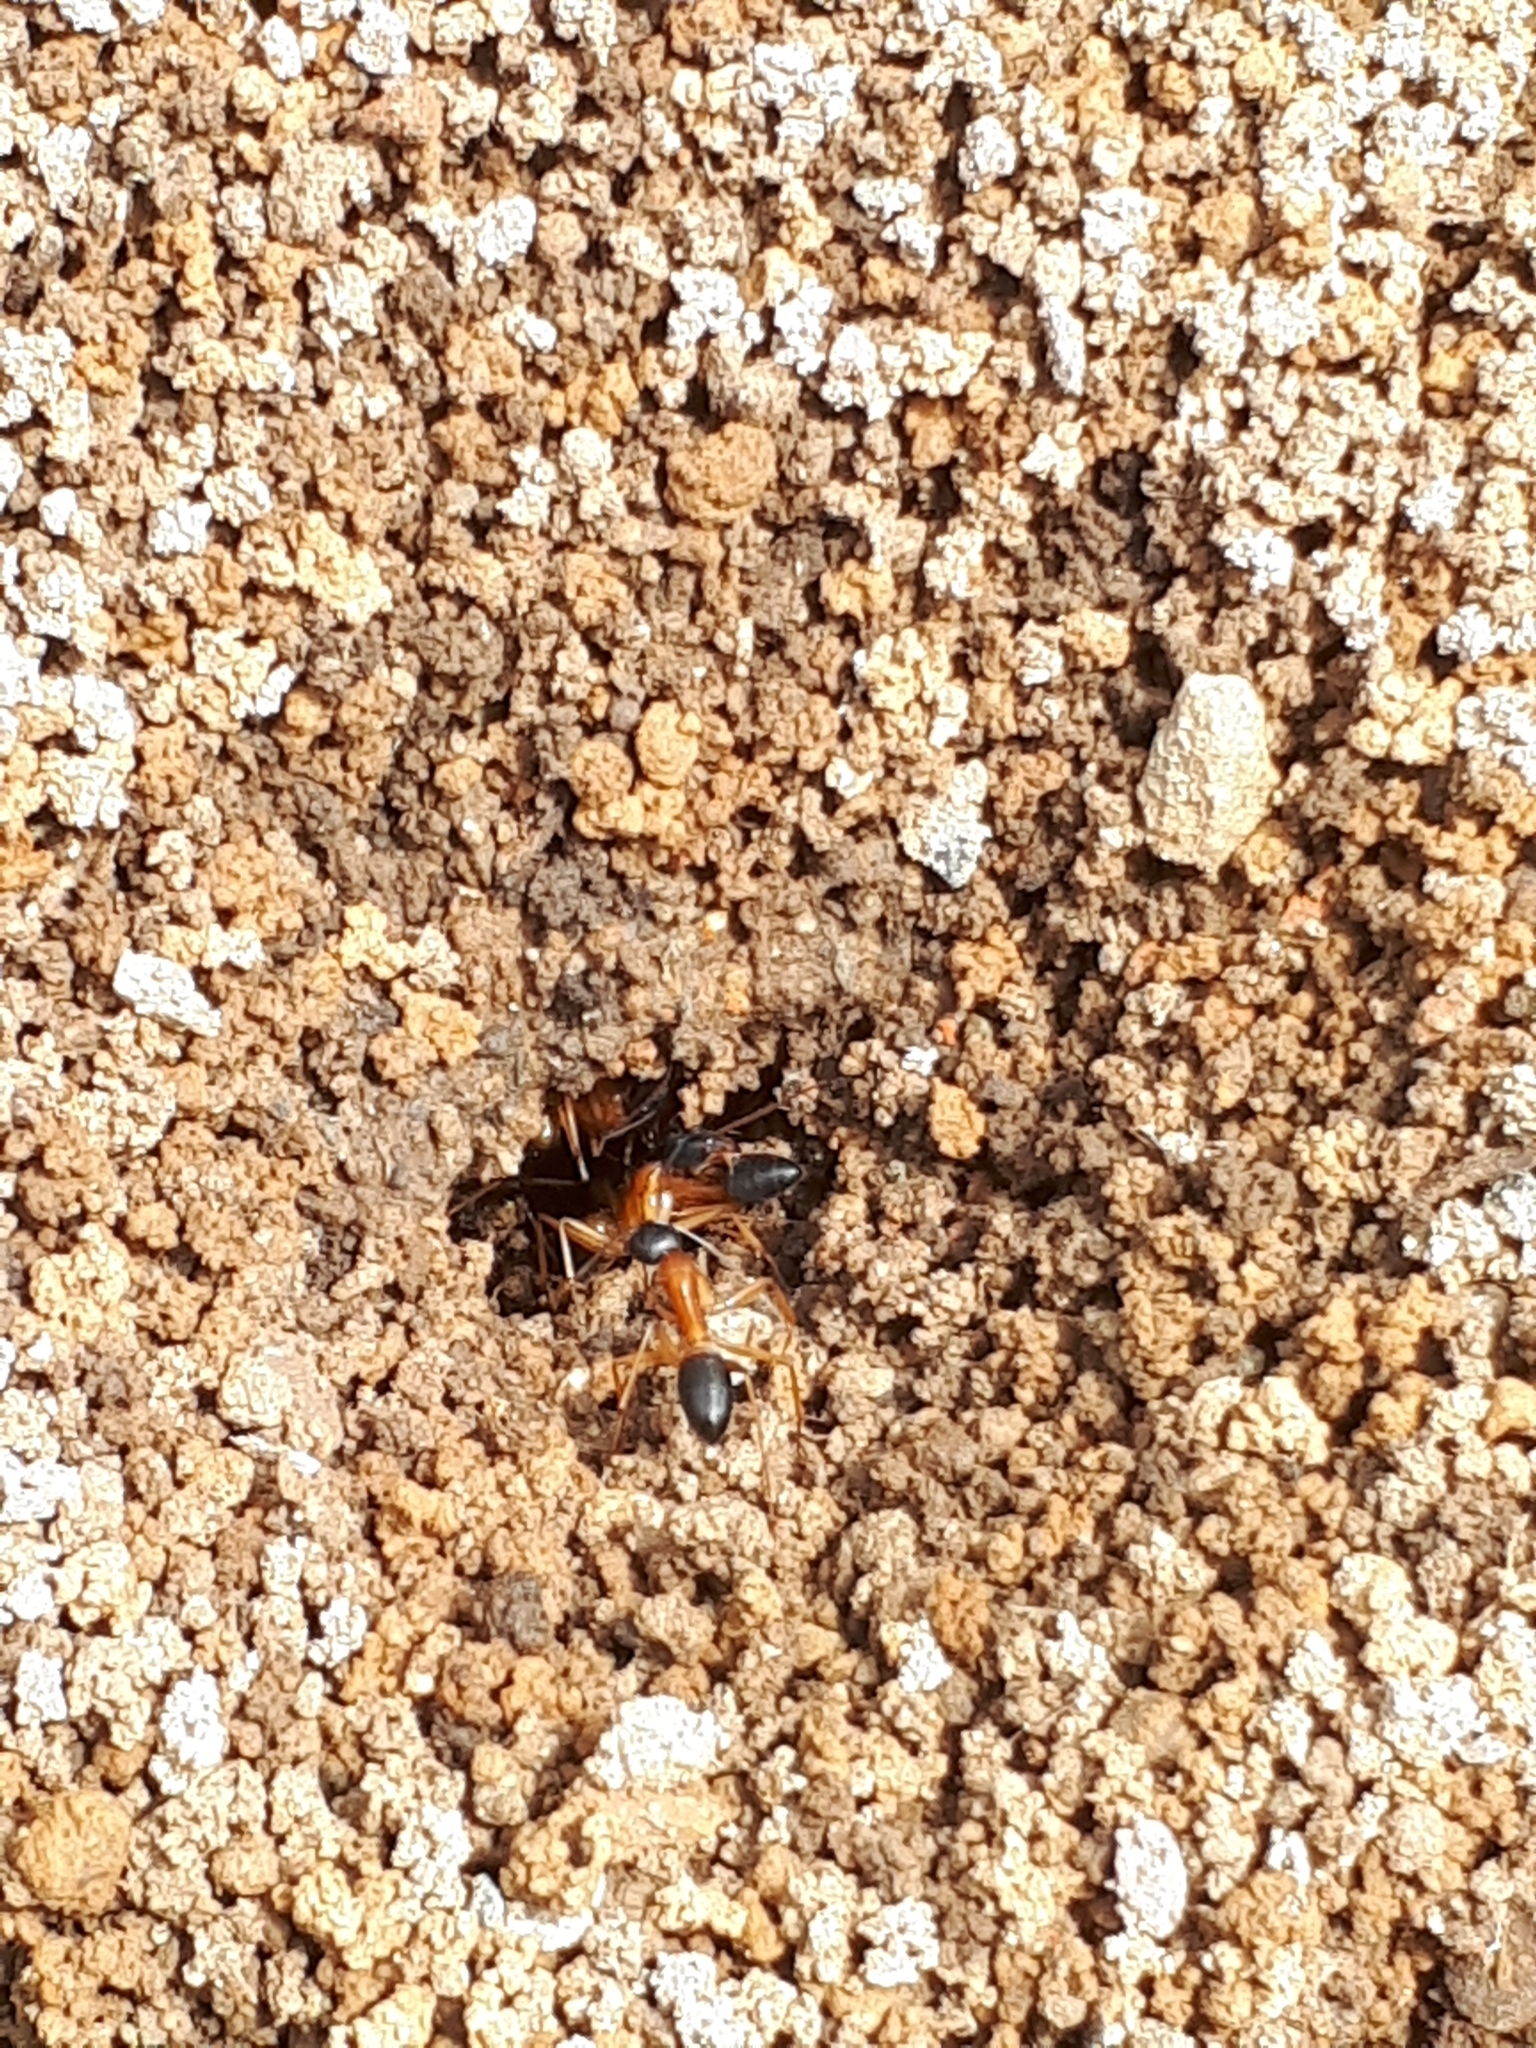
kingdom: Animalia
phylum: Arthropoda
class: Insecta
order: Hymenoptera
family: Formicidae
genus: Camponotus
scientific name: Camponotus consobrinus
